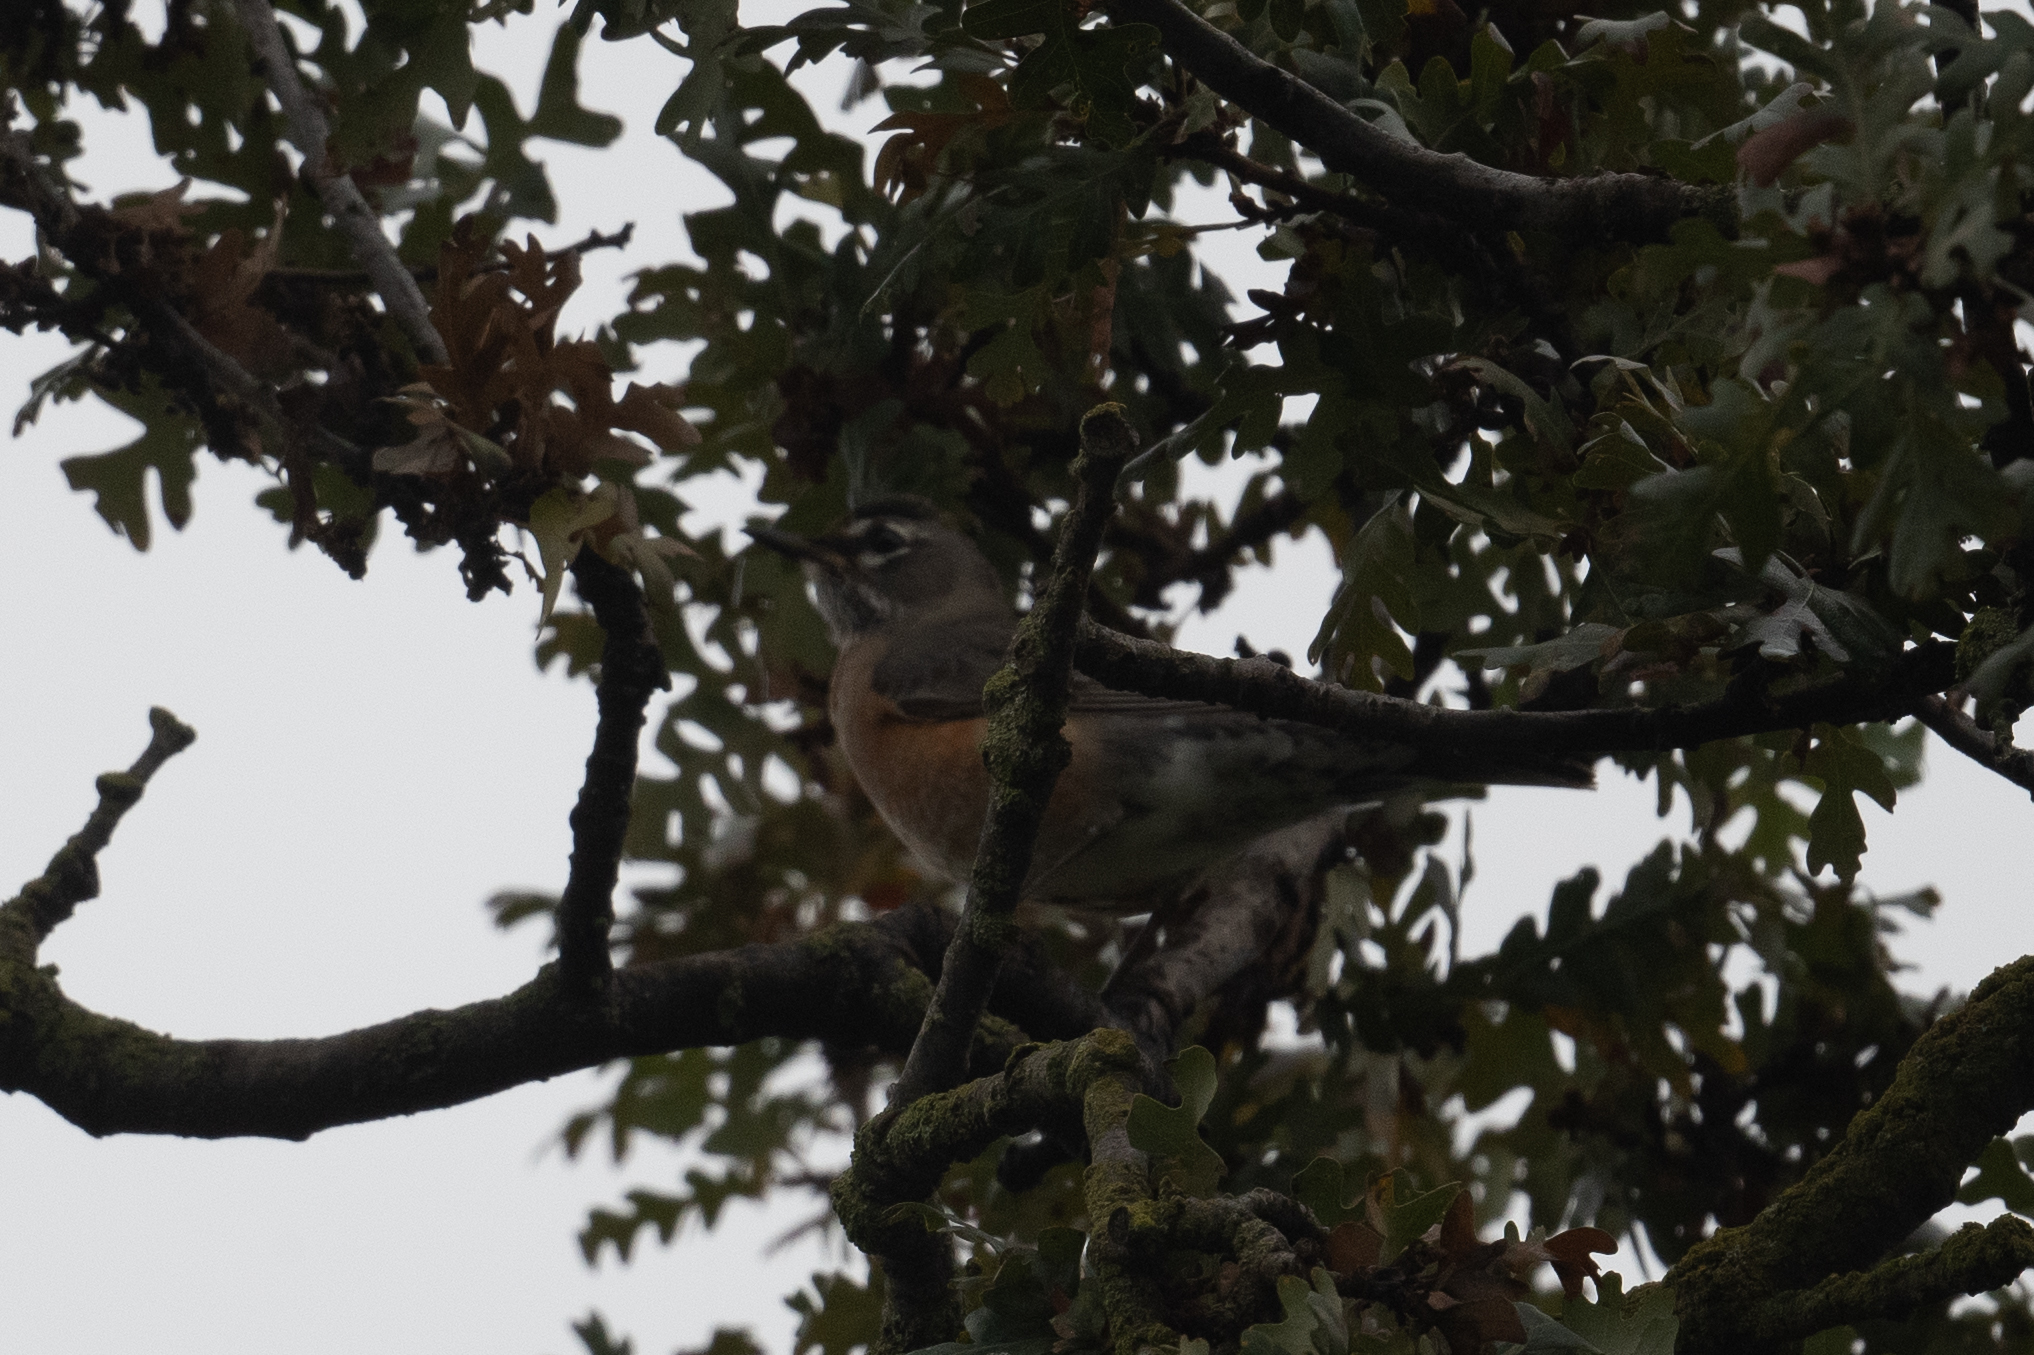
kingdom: Animalia
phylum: Chordata
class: Aves
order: Passeriformes
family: Turdidae
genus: Turdus
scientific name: Turdus migratorius
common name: American robin
